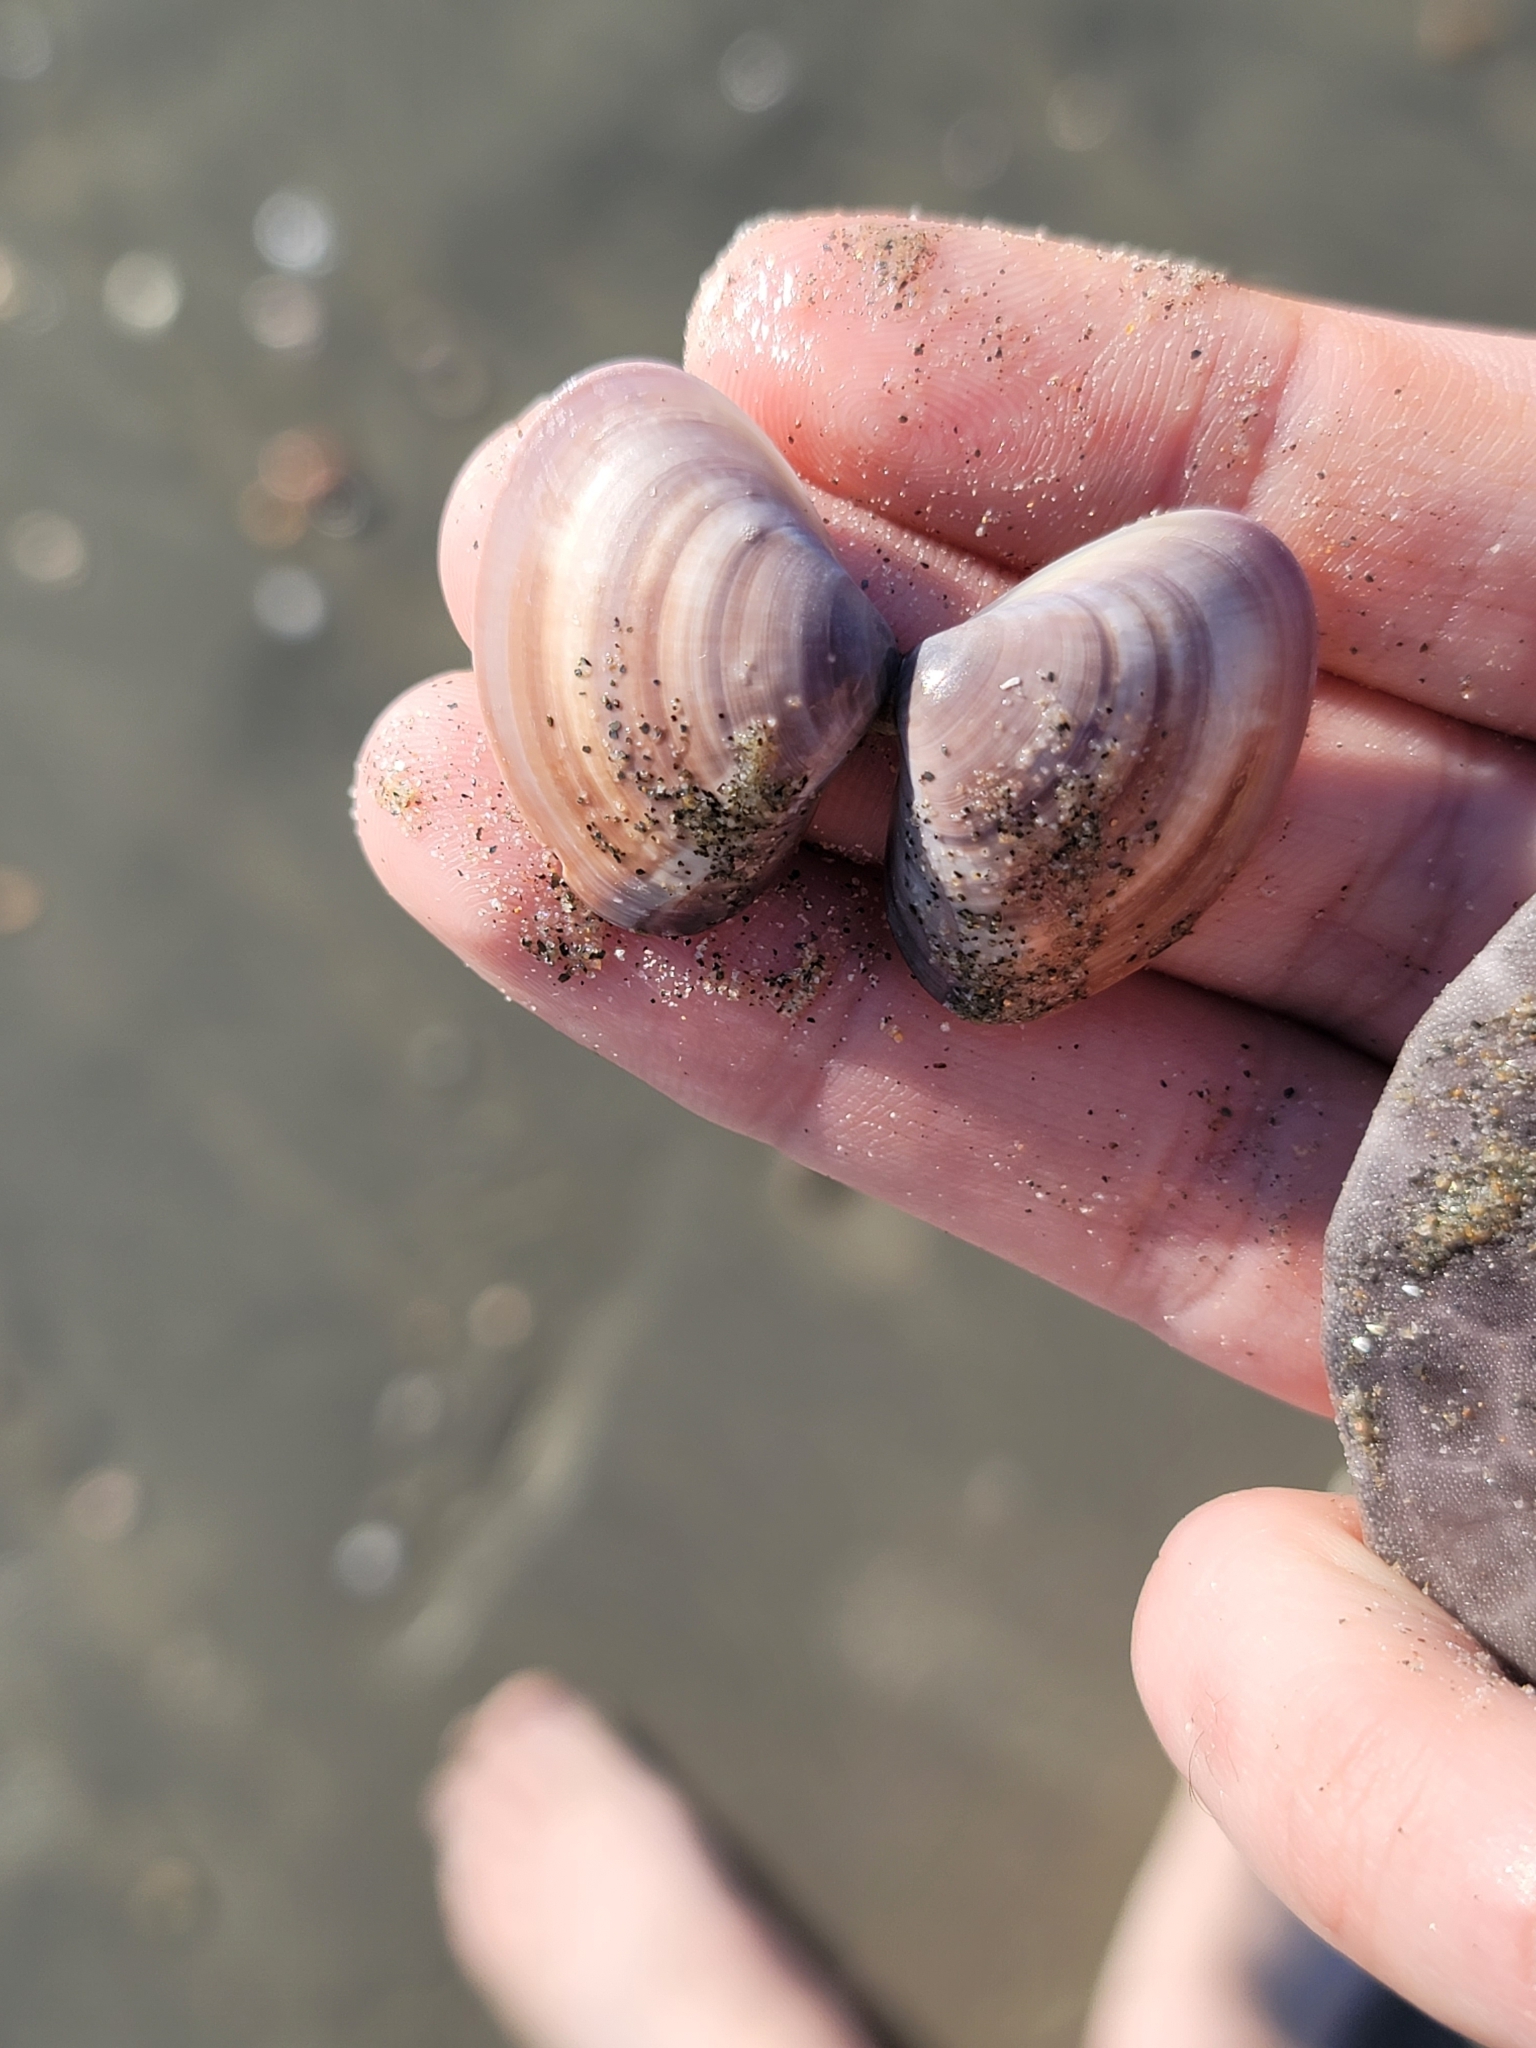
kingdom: Animalia
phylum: Mollusca
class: Bivalvia
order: Venerida
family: Veneridae
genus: Tivela
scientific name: Tivela stultorum
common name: Pismo clam
